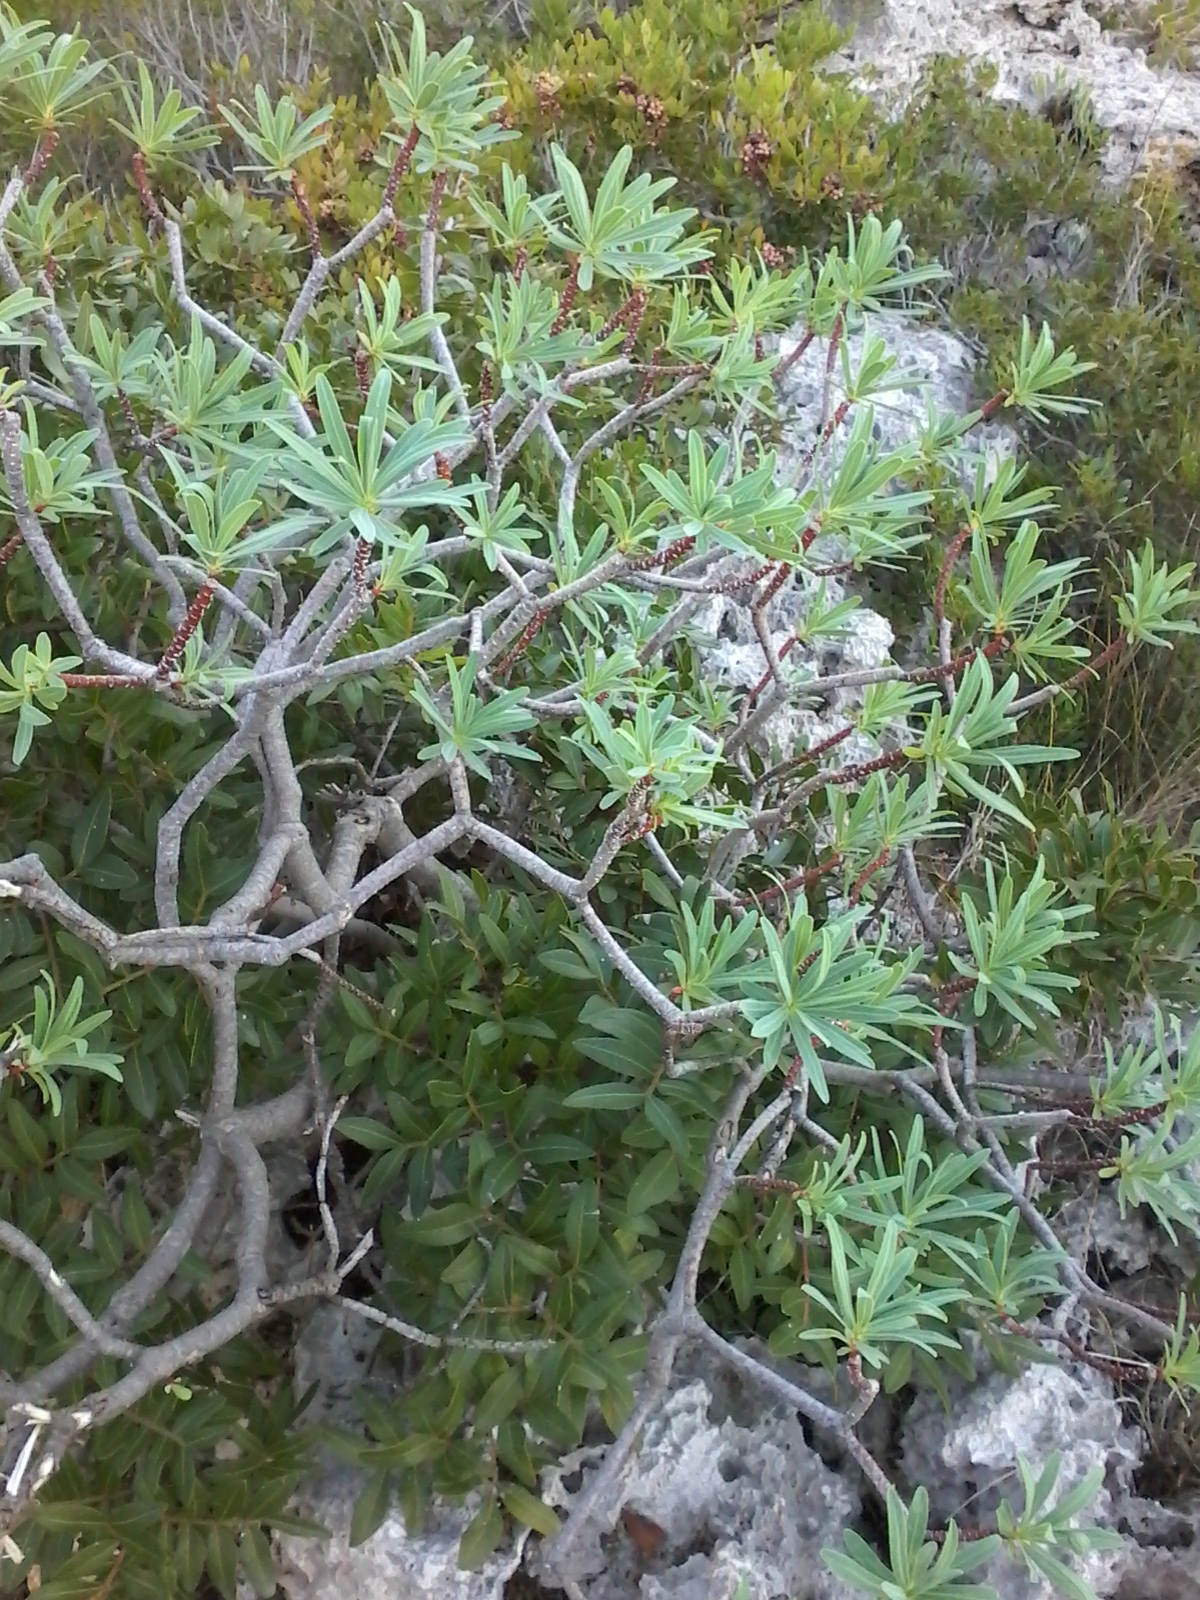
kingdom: Plantae
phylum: Tracheophyta
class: Magnoliopsida
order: Malpighiales
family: Euphorbiaceae
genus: Euphorbia
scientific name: Euphorbia dendroides
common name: Tree spurge
